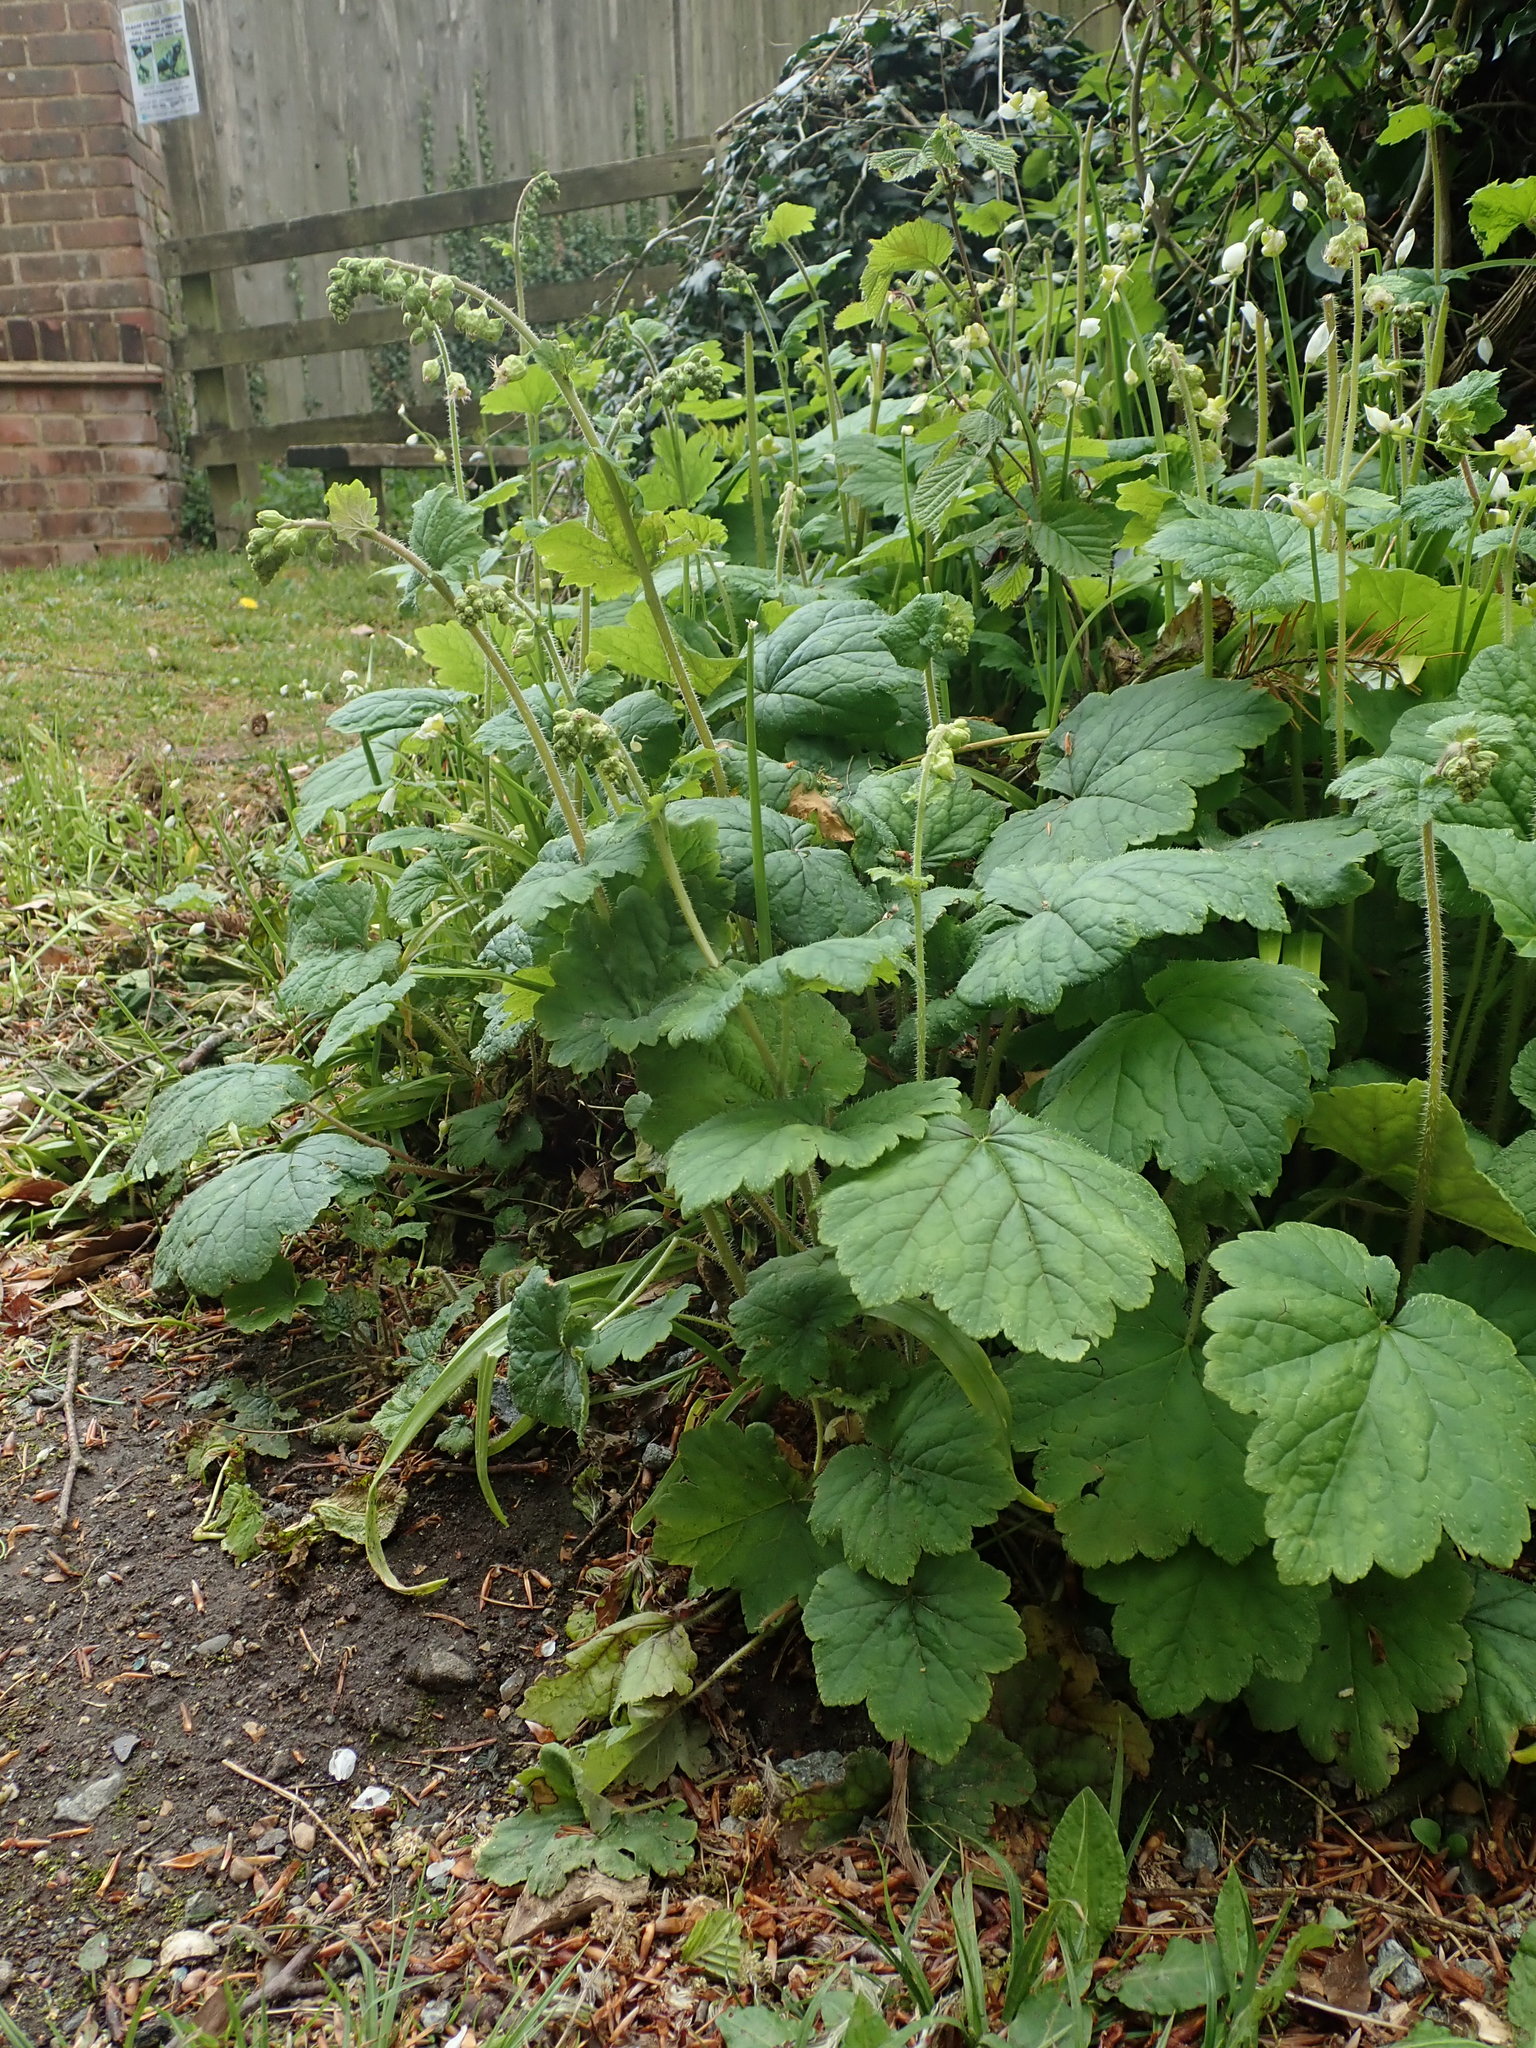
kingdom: Plantae
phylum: Tracheophyta
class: Magnoliopsida
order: Saxifragales
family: Saxifragaceae
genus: Tellima
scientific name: Tellima grandiflora
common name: Fringecups
